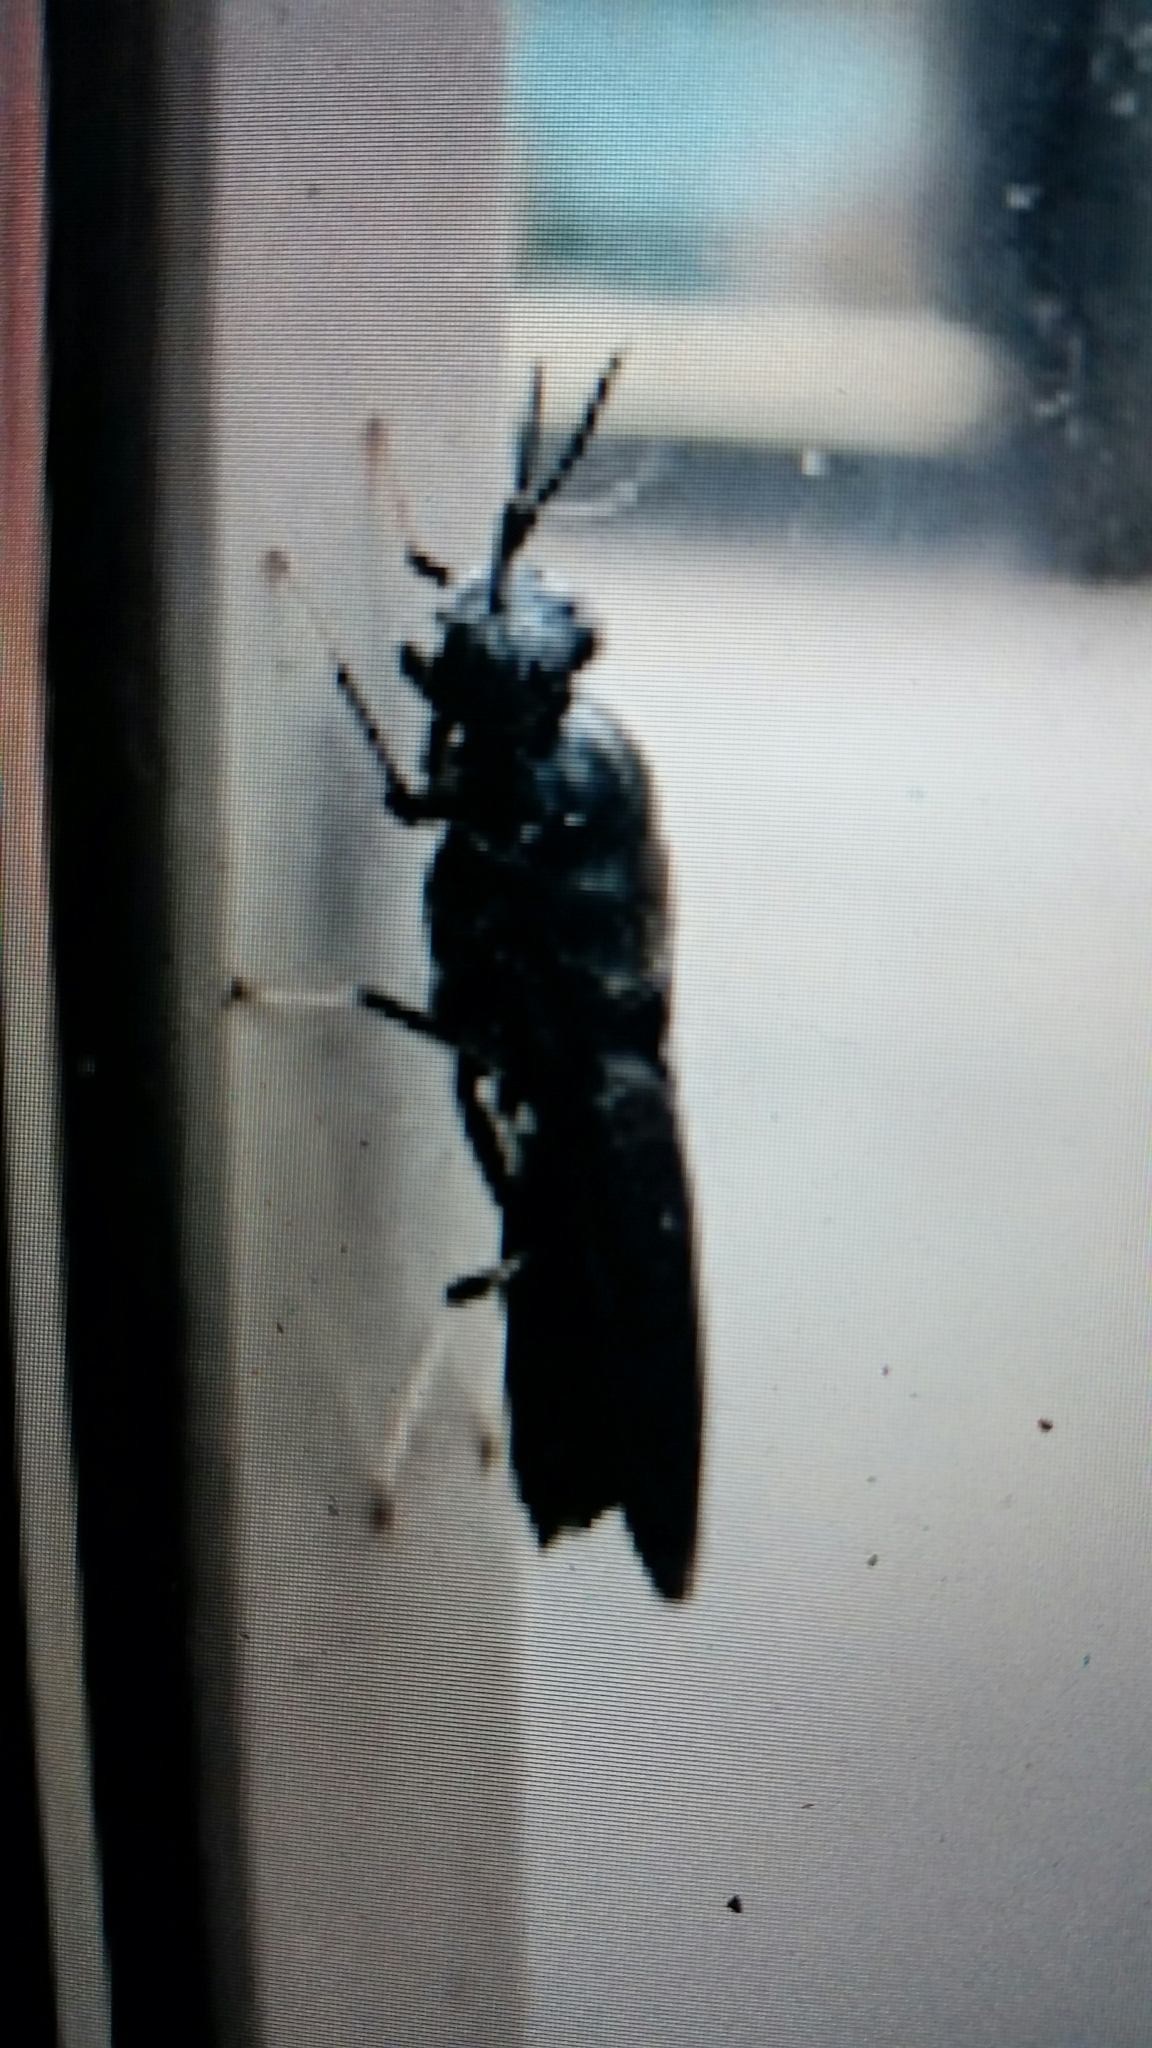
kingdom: Animalia
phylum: Arthropoda
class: Insecta
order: Diptera
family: Stratiomyidae
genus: Hermetia
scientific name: Hermetia illucens
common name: Black soldier fly
